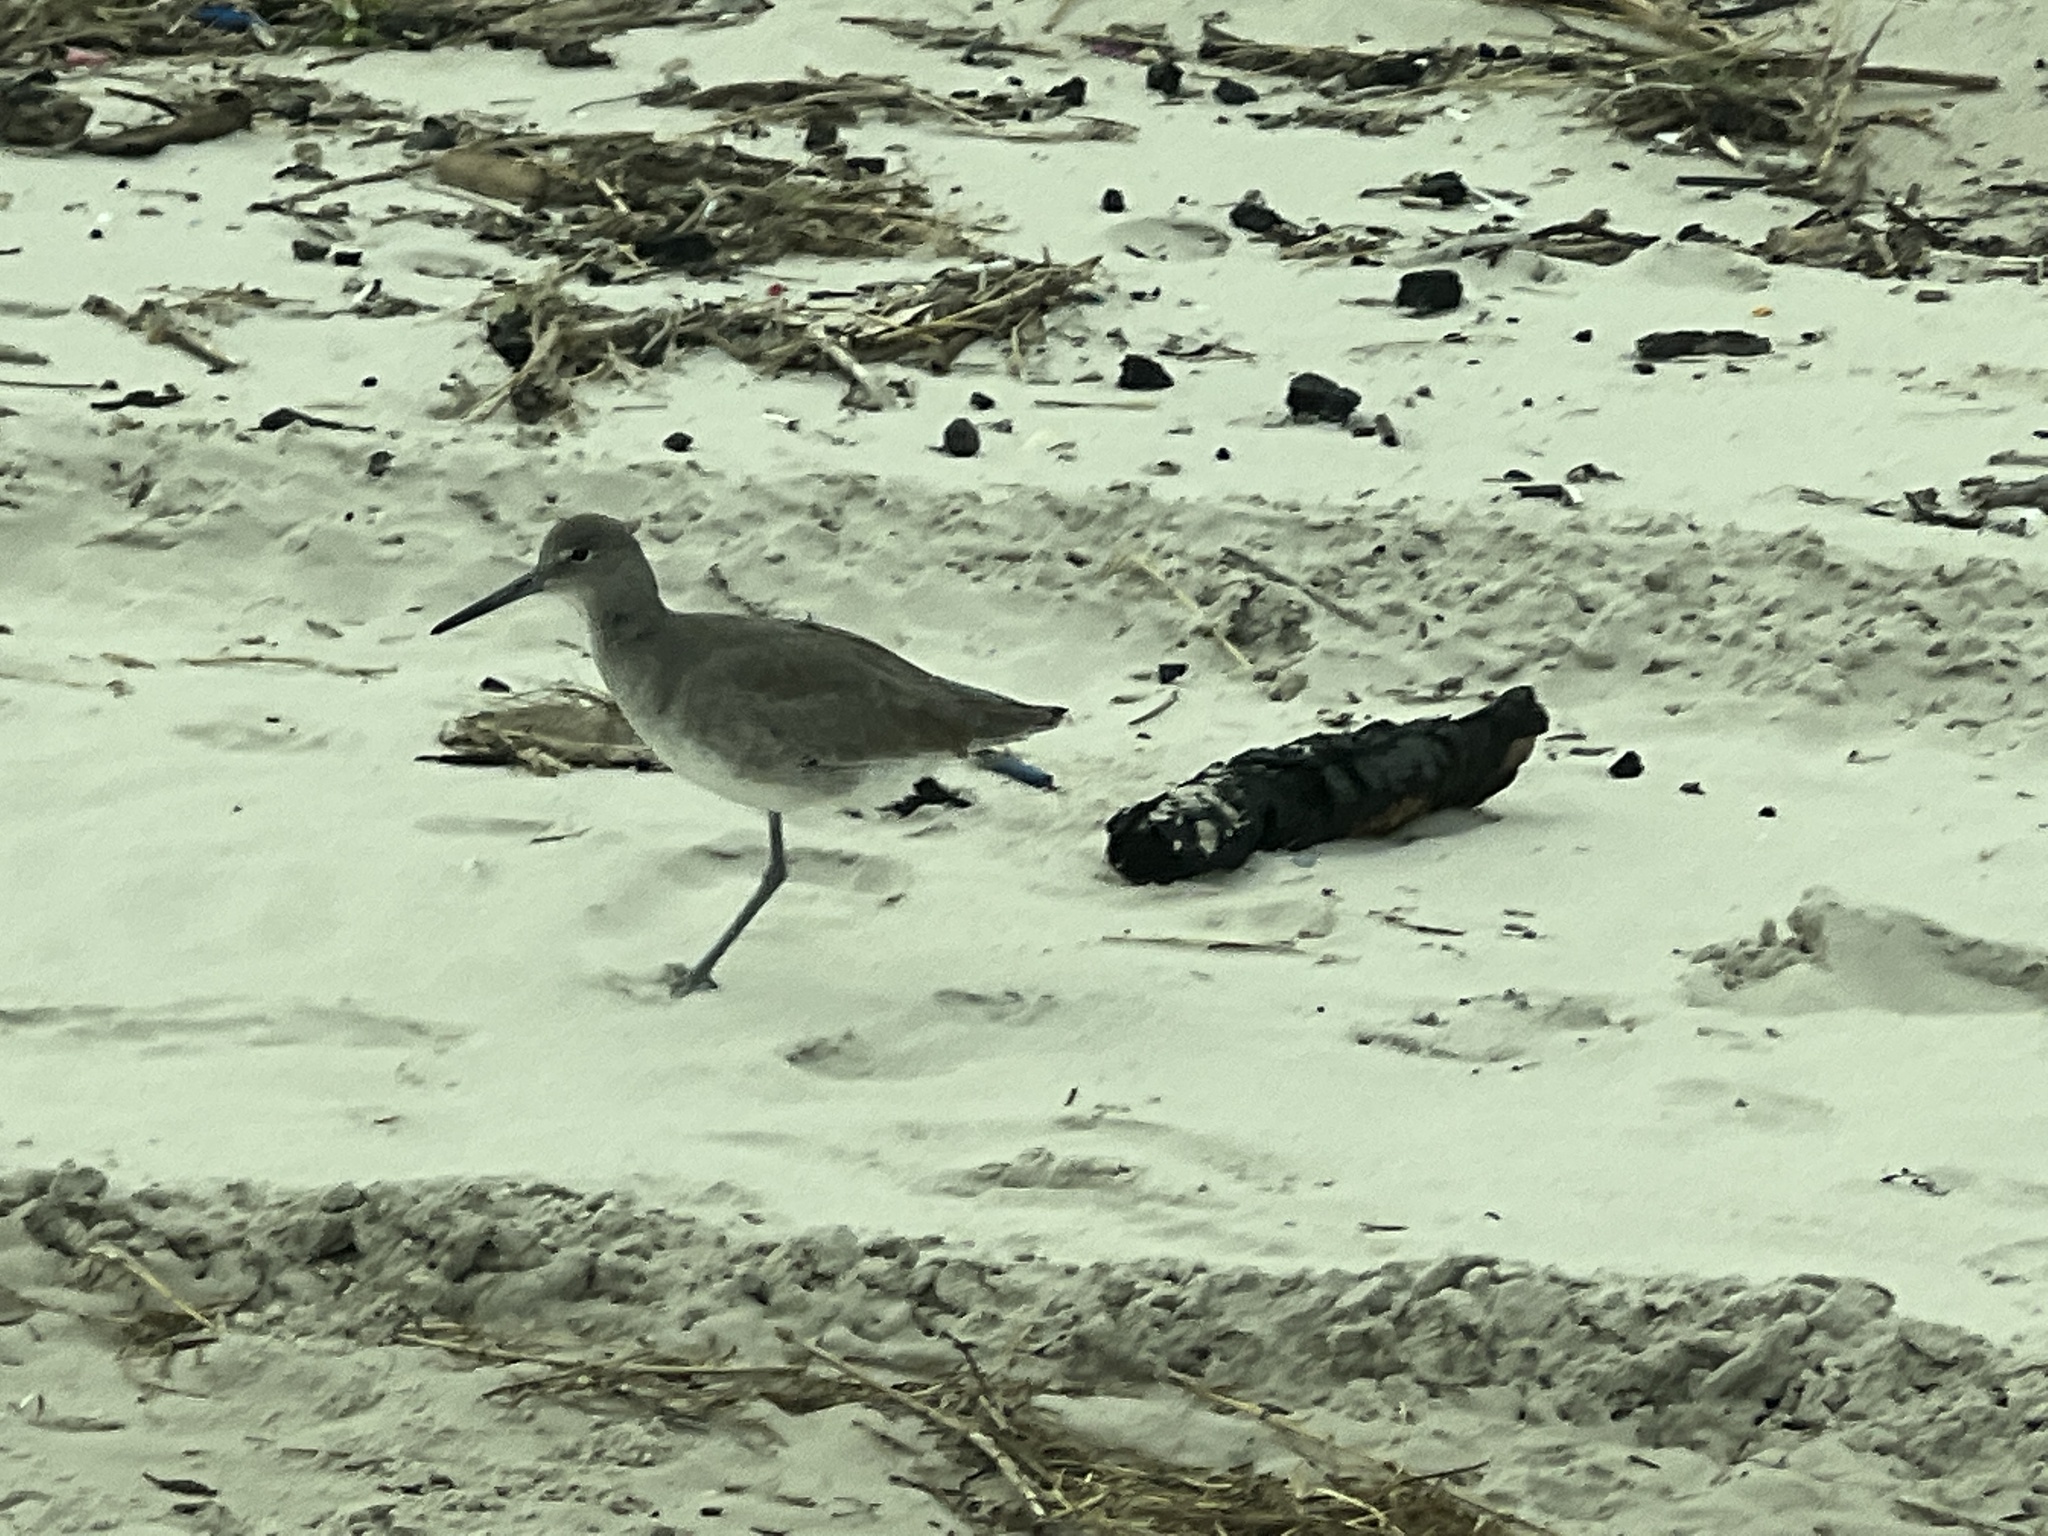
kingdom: Animalia
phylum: Chordata
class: Aves
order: Charadriiformes
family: Scolopacidae
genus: Tringa
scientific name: Tringa semipalmata
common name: Willet
